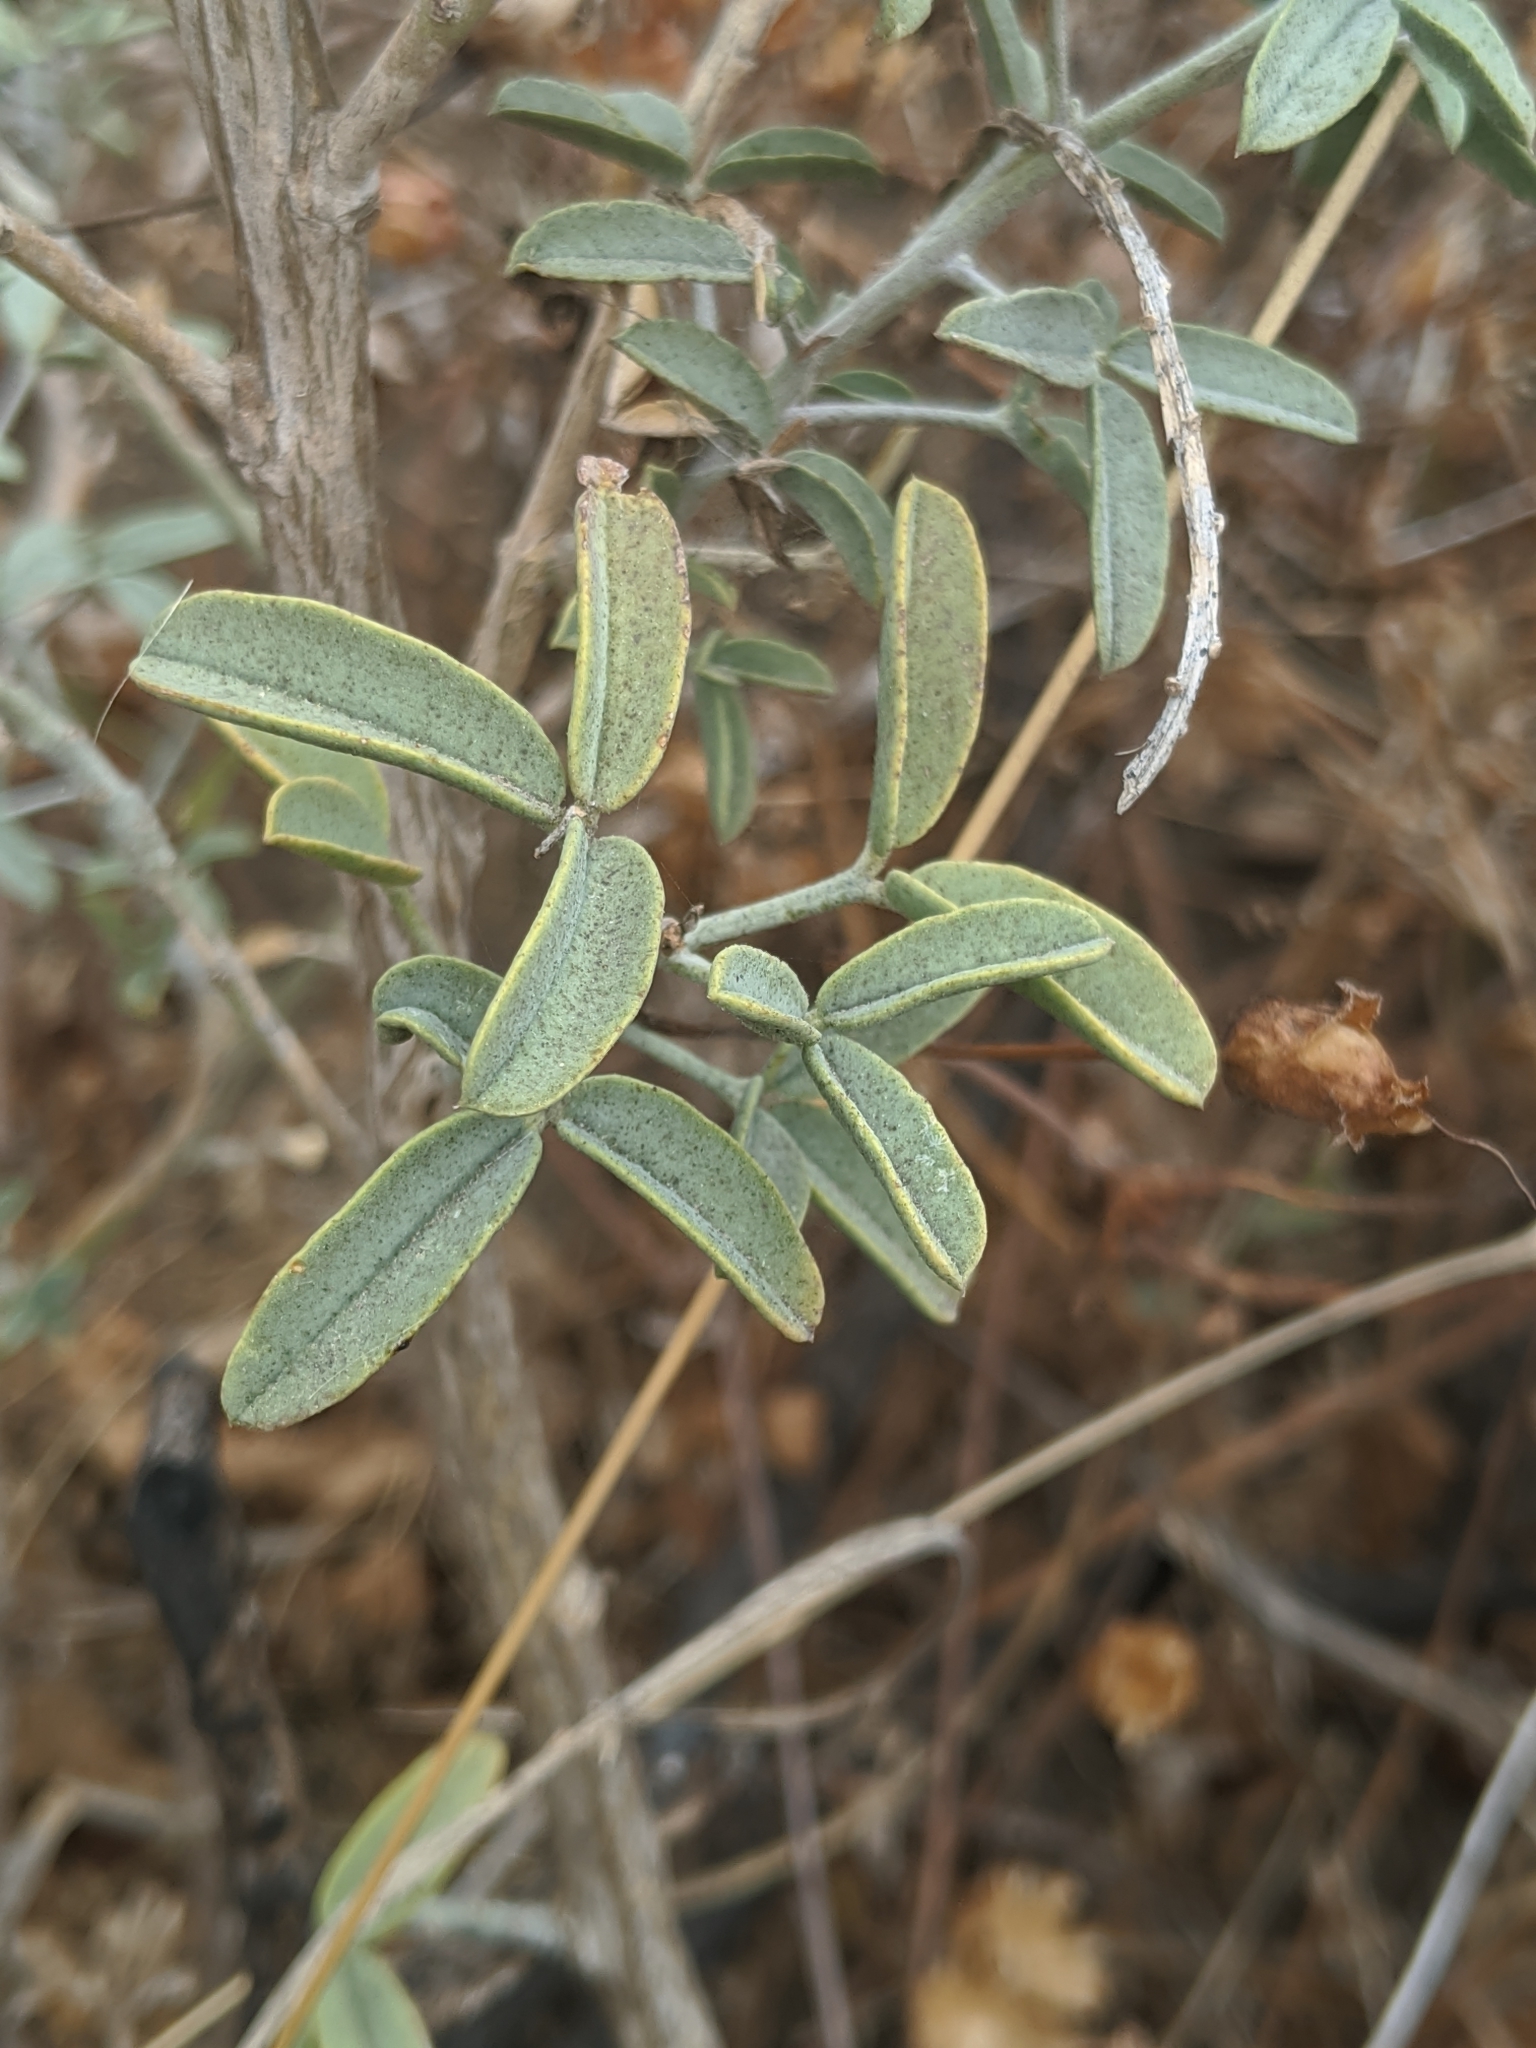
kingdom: Plantae
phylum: Tracheophyta
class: Magnoliopsida
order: Brassicales
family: Cleomaceae
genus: Cleomella
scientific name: Cleomella arborea
